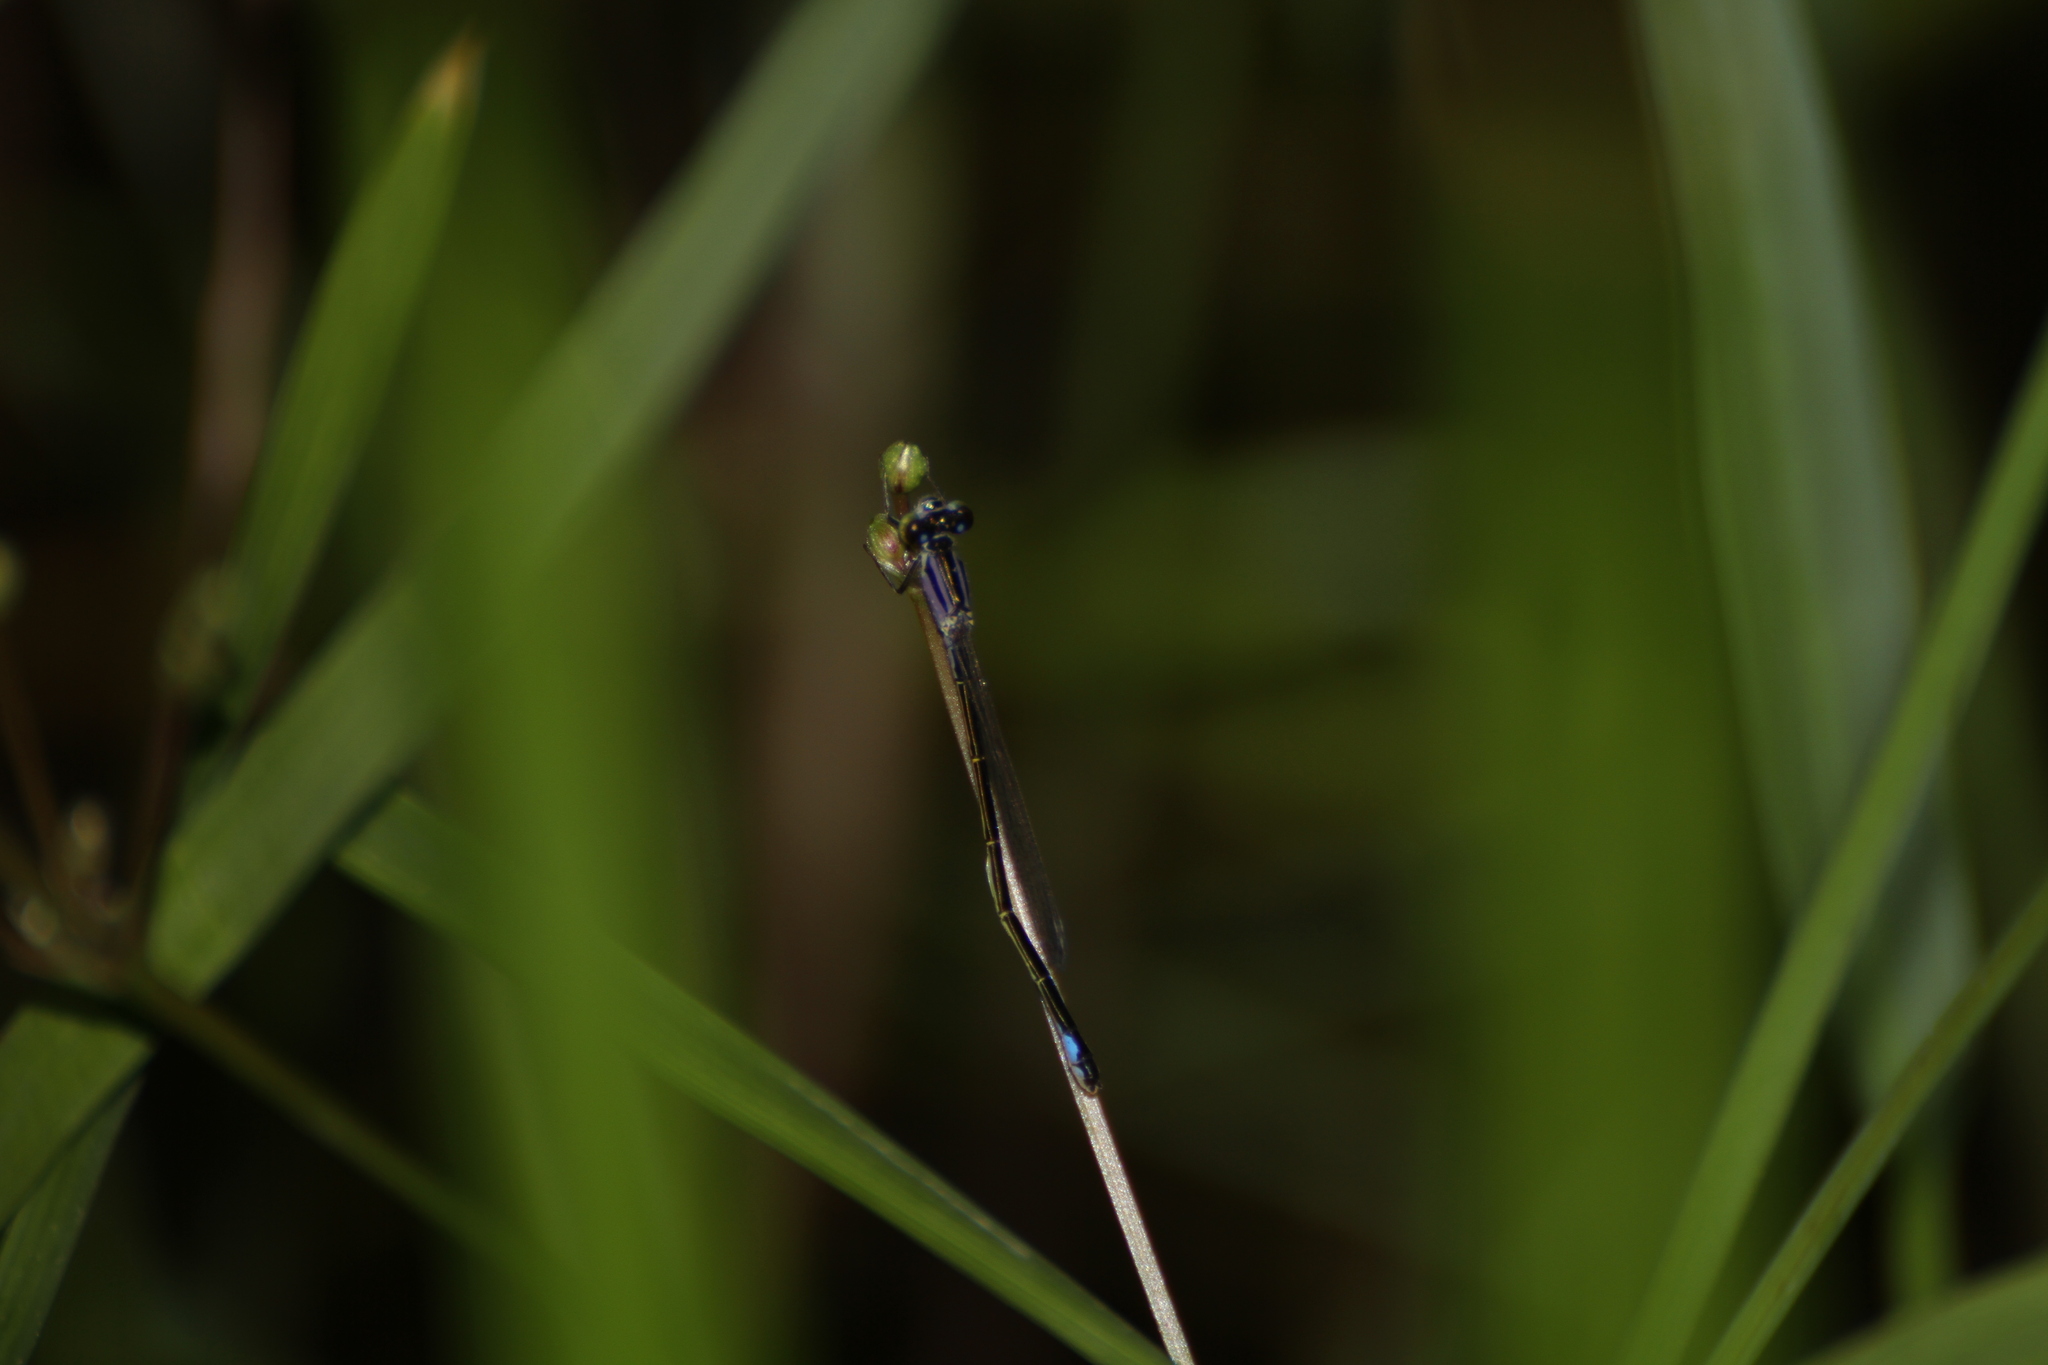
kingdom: Animalia
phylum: Arthropoda
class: Insecta
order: Odonata
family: Coenagrionidae
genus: Ischnura
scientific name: Ischnura elegans
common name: Blue-tailed damselfly
